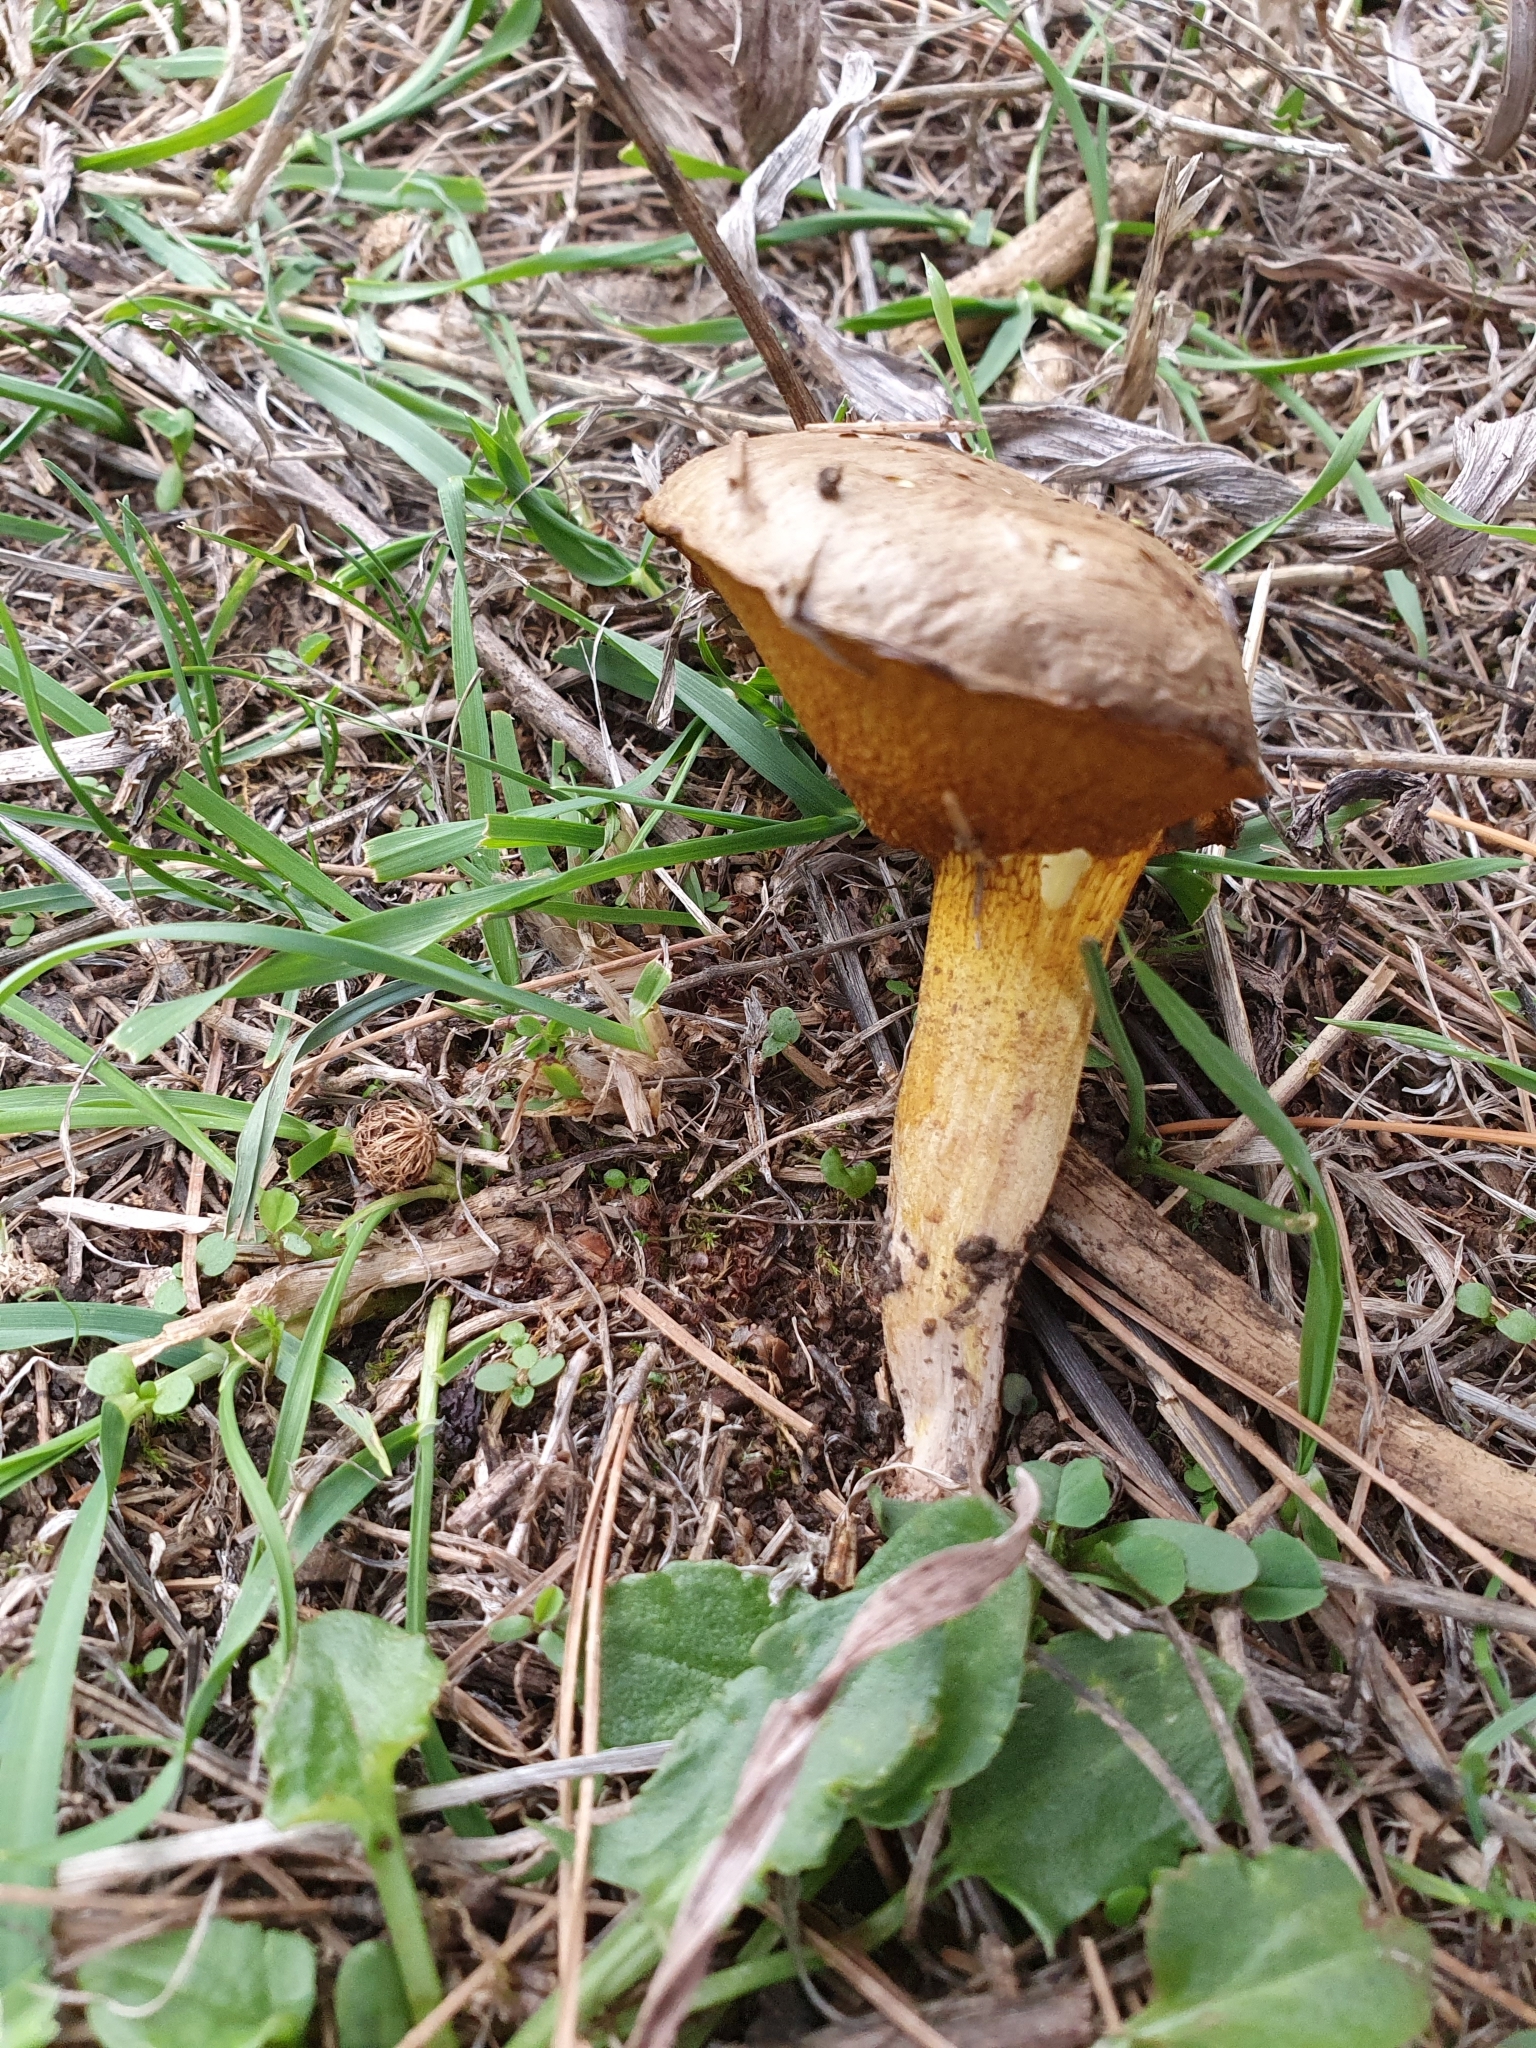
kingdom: Fungi
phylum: Basidiomycota
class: Agaricomycetes
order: Boletales
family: Suillaceae
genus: Suillus
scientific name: Suillus collinitus
